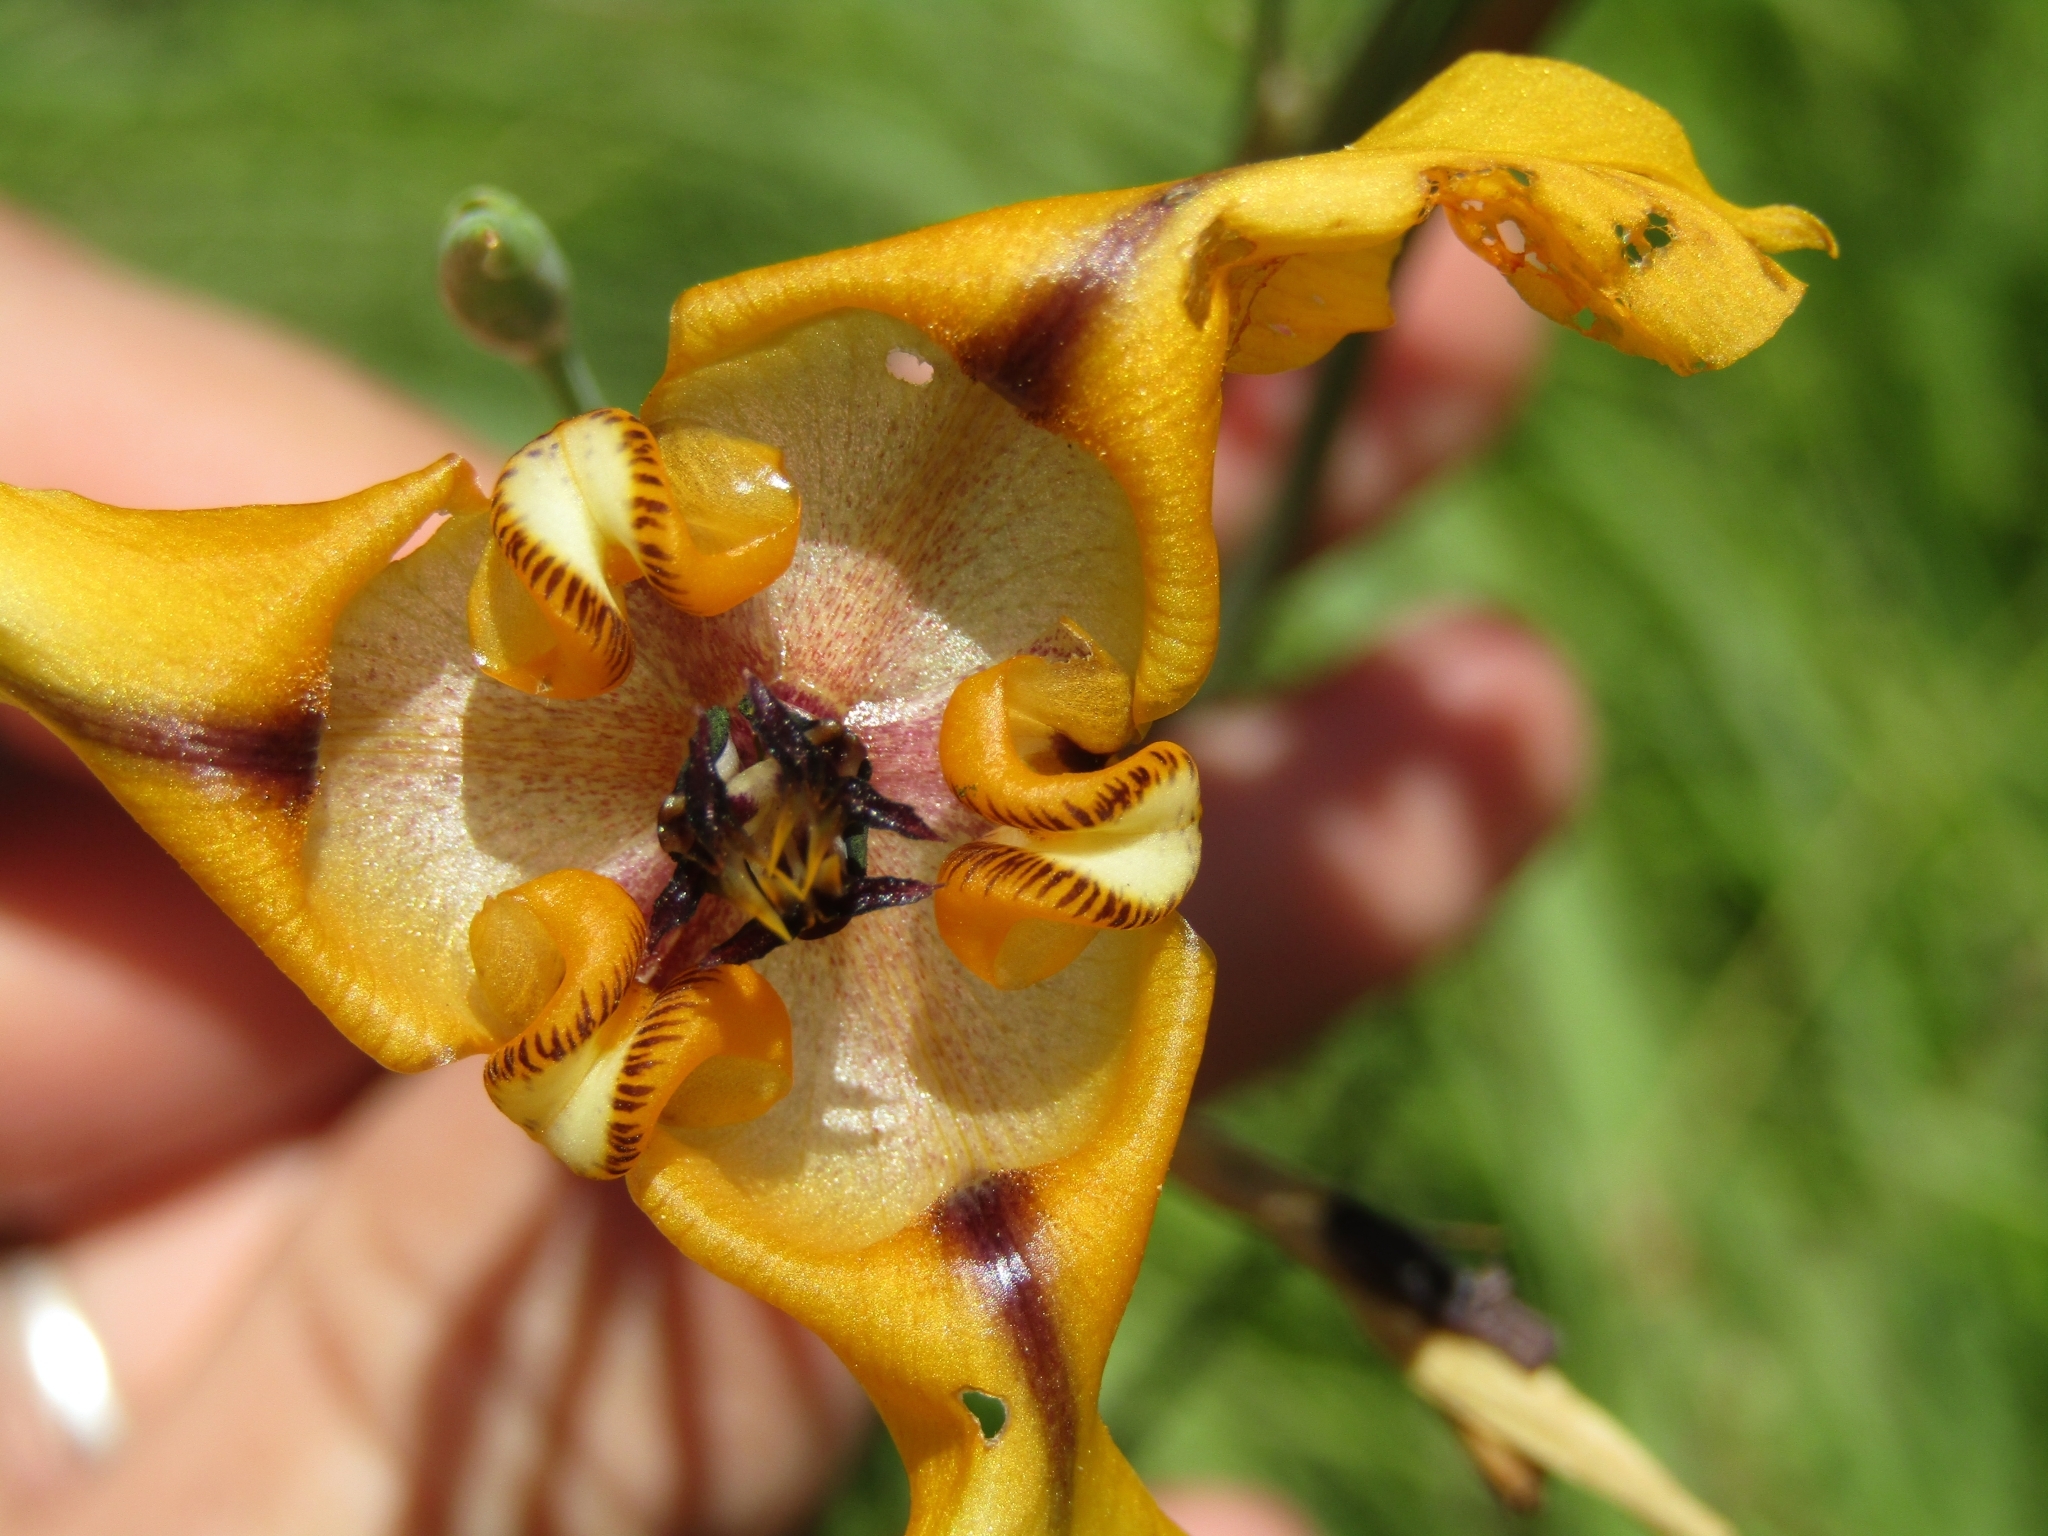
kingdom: Plantae
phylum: Tracheophyta
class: Liliopsida
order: Asparagales
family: Iridaceae
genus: Cypella
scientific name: Cypella herbertii
